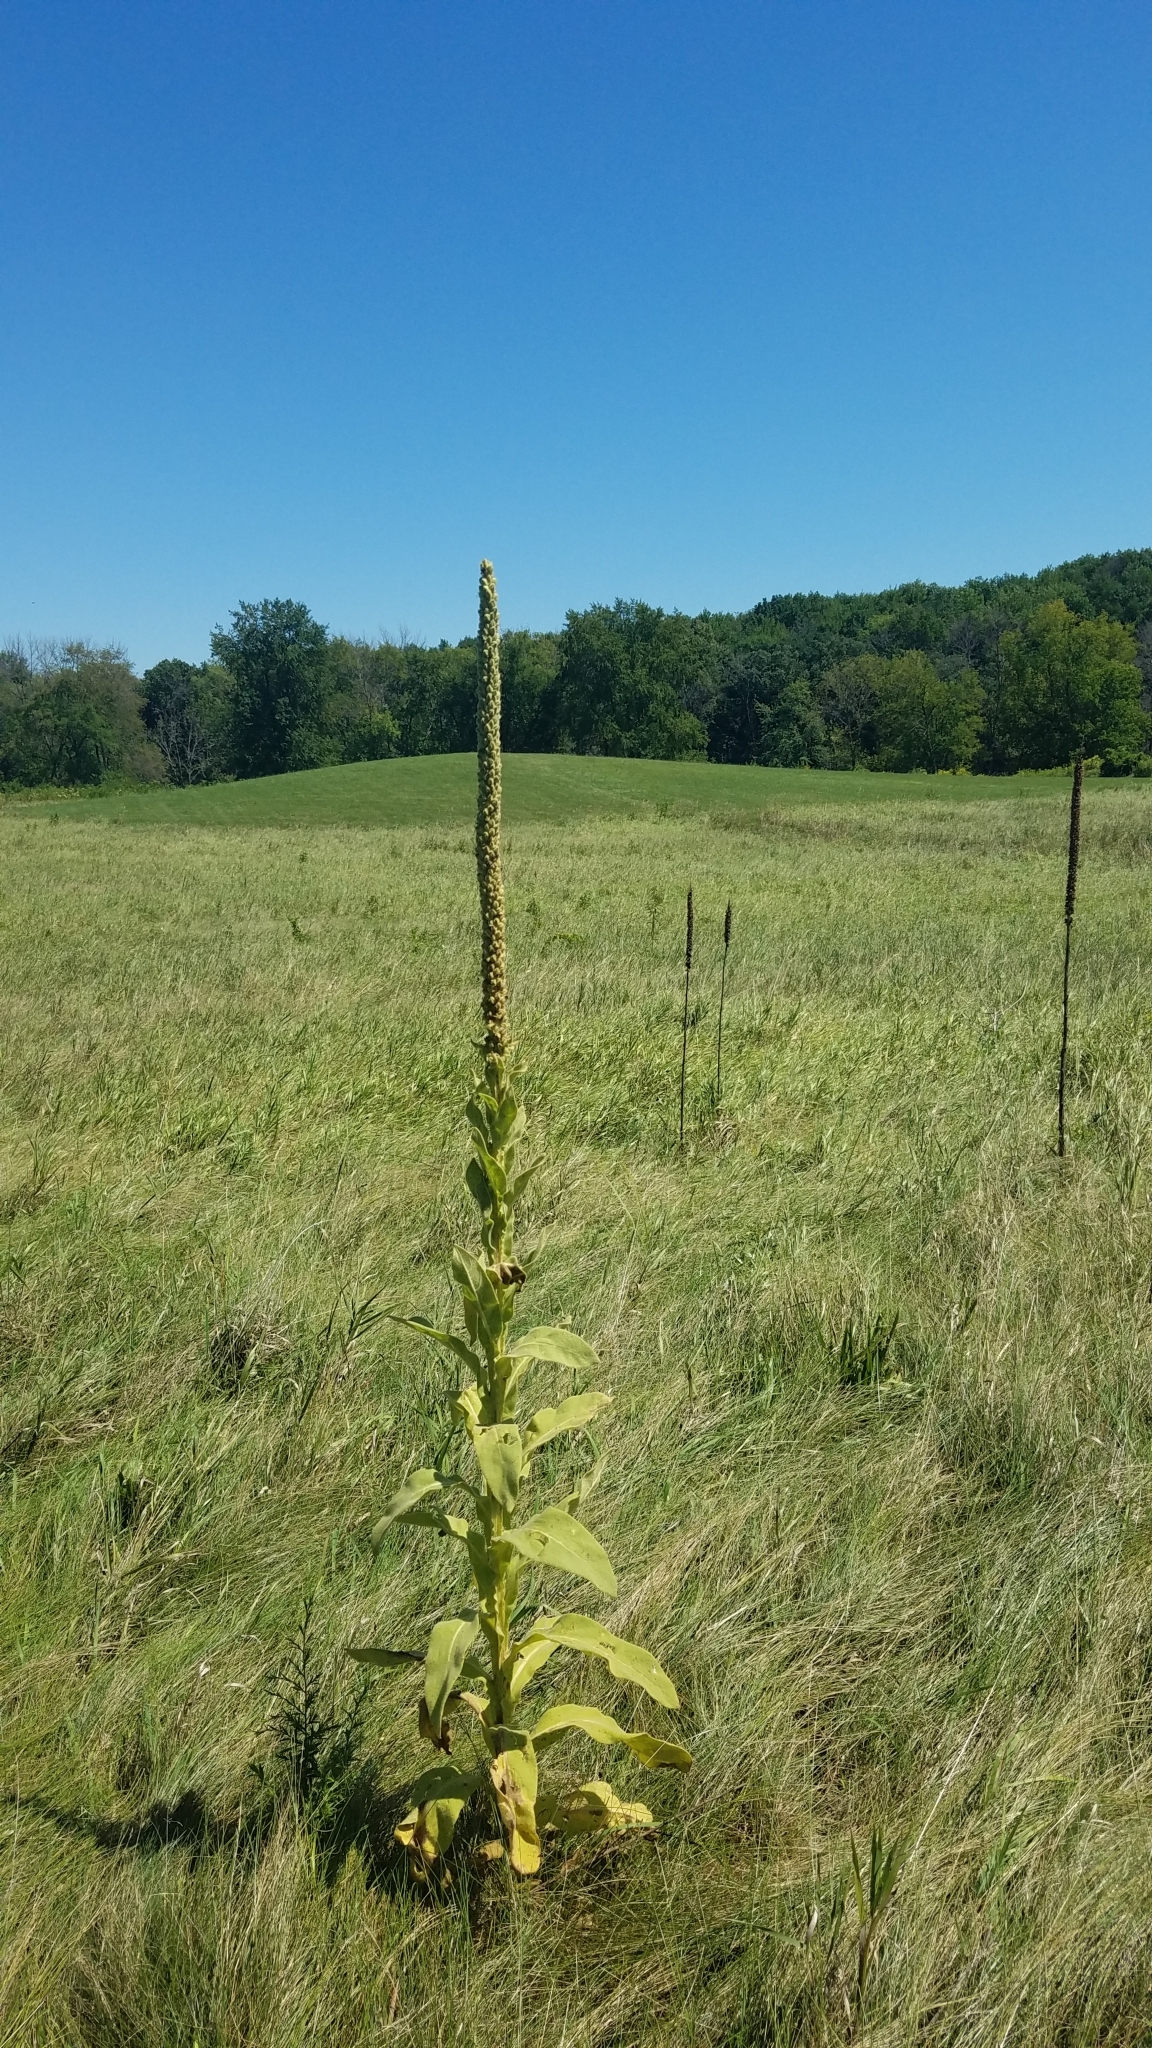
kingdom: Plantae
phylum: Tracheophyta
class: Magnoliopsida
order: Lamiales
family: Scrophulariaceae
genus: Verbascum
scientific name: Verbascum thapsus
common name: Common mullein
